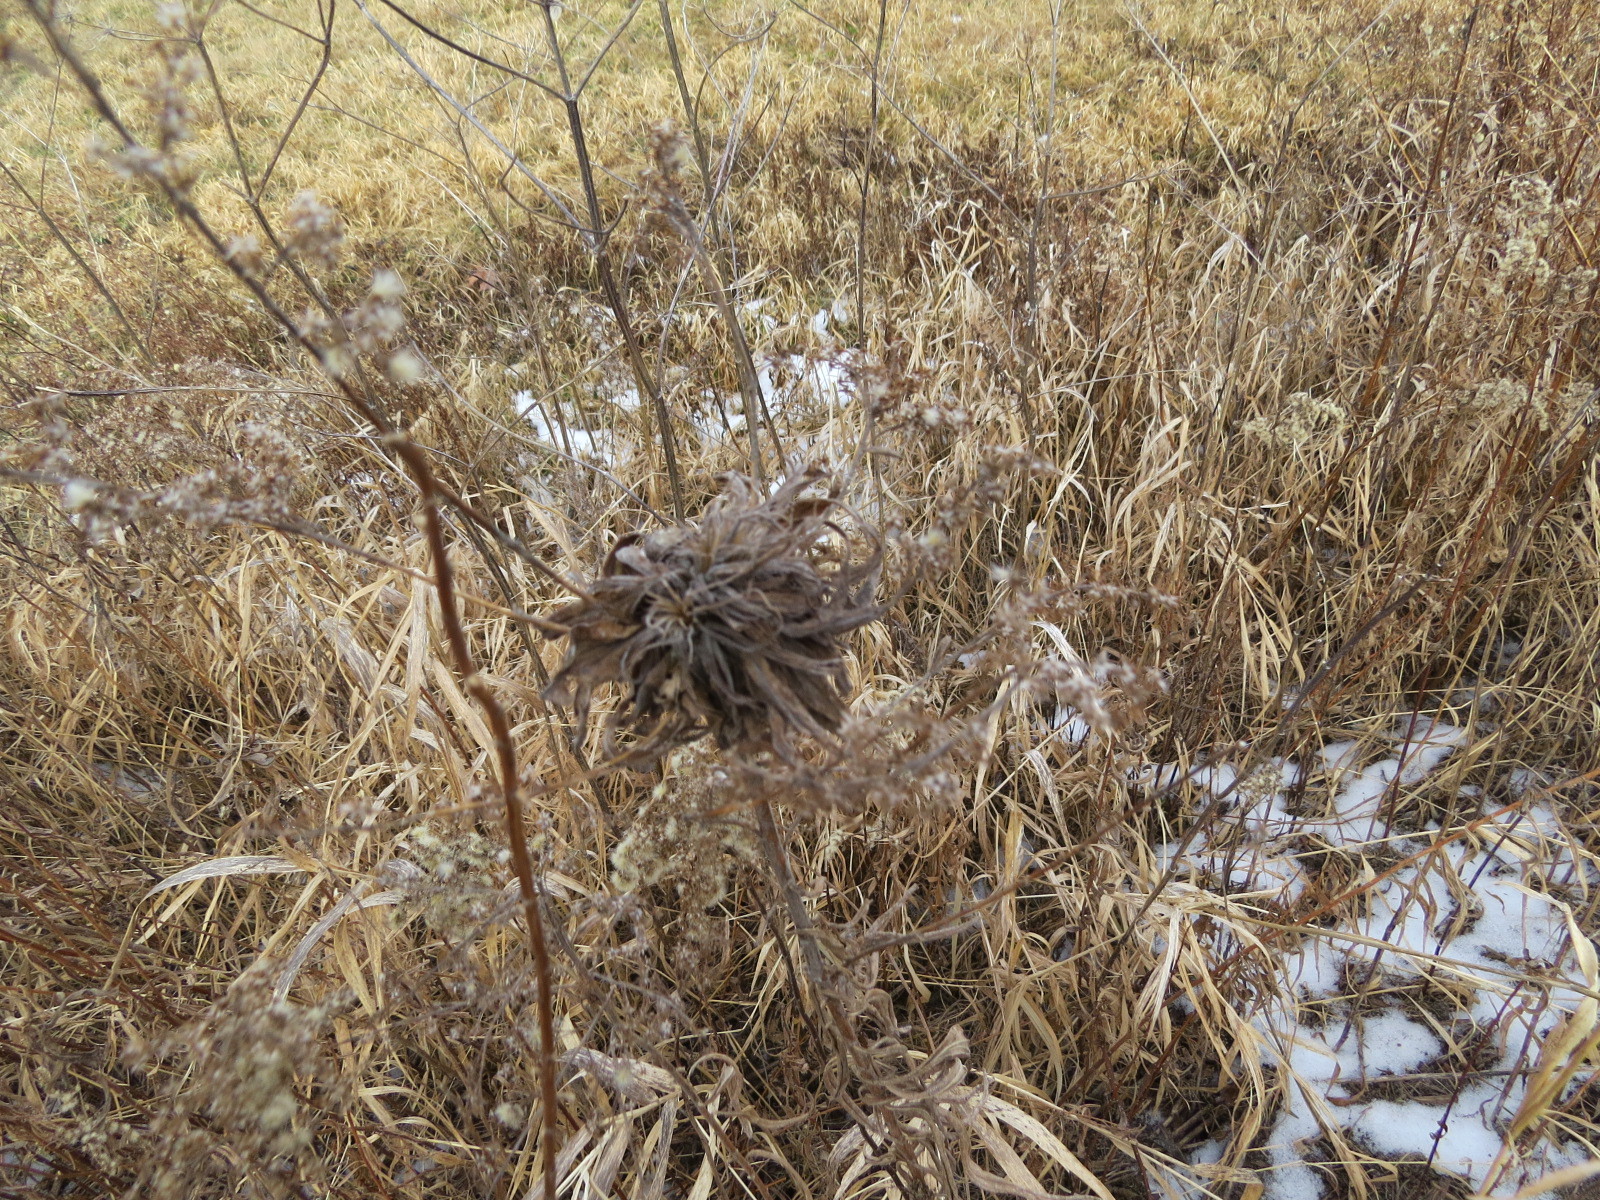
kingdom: Animalia
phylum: Arthropoda
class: Insecta
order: Diptera
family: Cecidomyiidae
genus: Rhopalomyia
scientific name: Rhopalomyia solidaginis
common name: Goldenrod bunch gall midge
